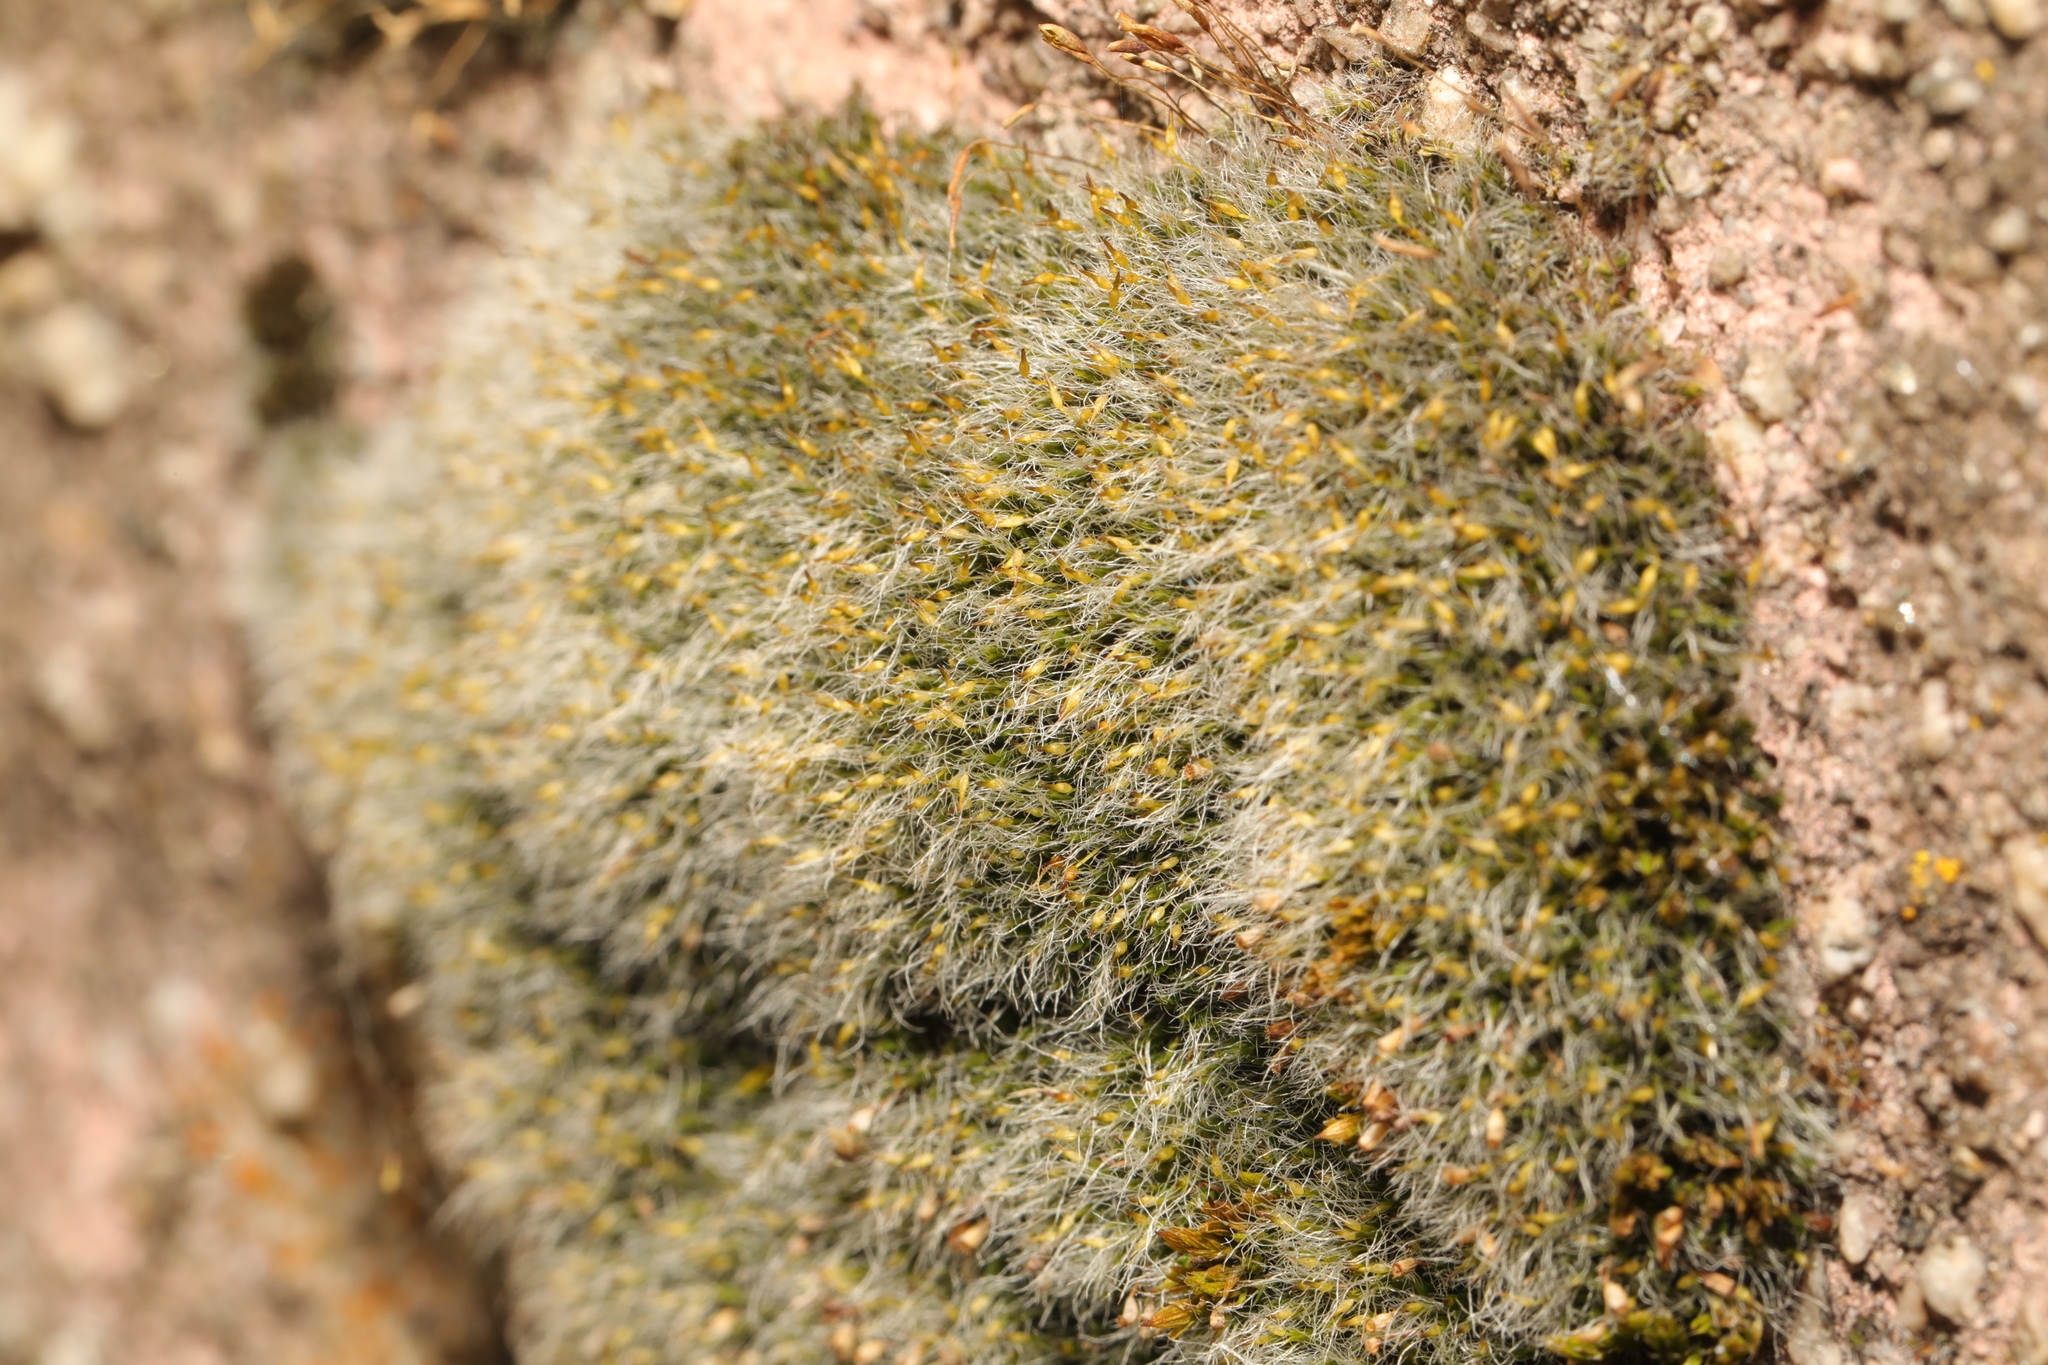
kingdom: Plantae
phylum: Bryophyta
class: Bryopsida
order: Grimmiales
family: Grimmiaceae
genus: Grimmia
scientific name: Grimmia pulvinata
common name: Grey-cushioned grimmia
